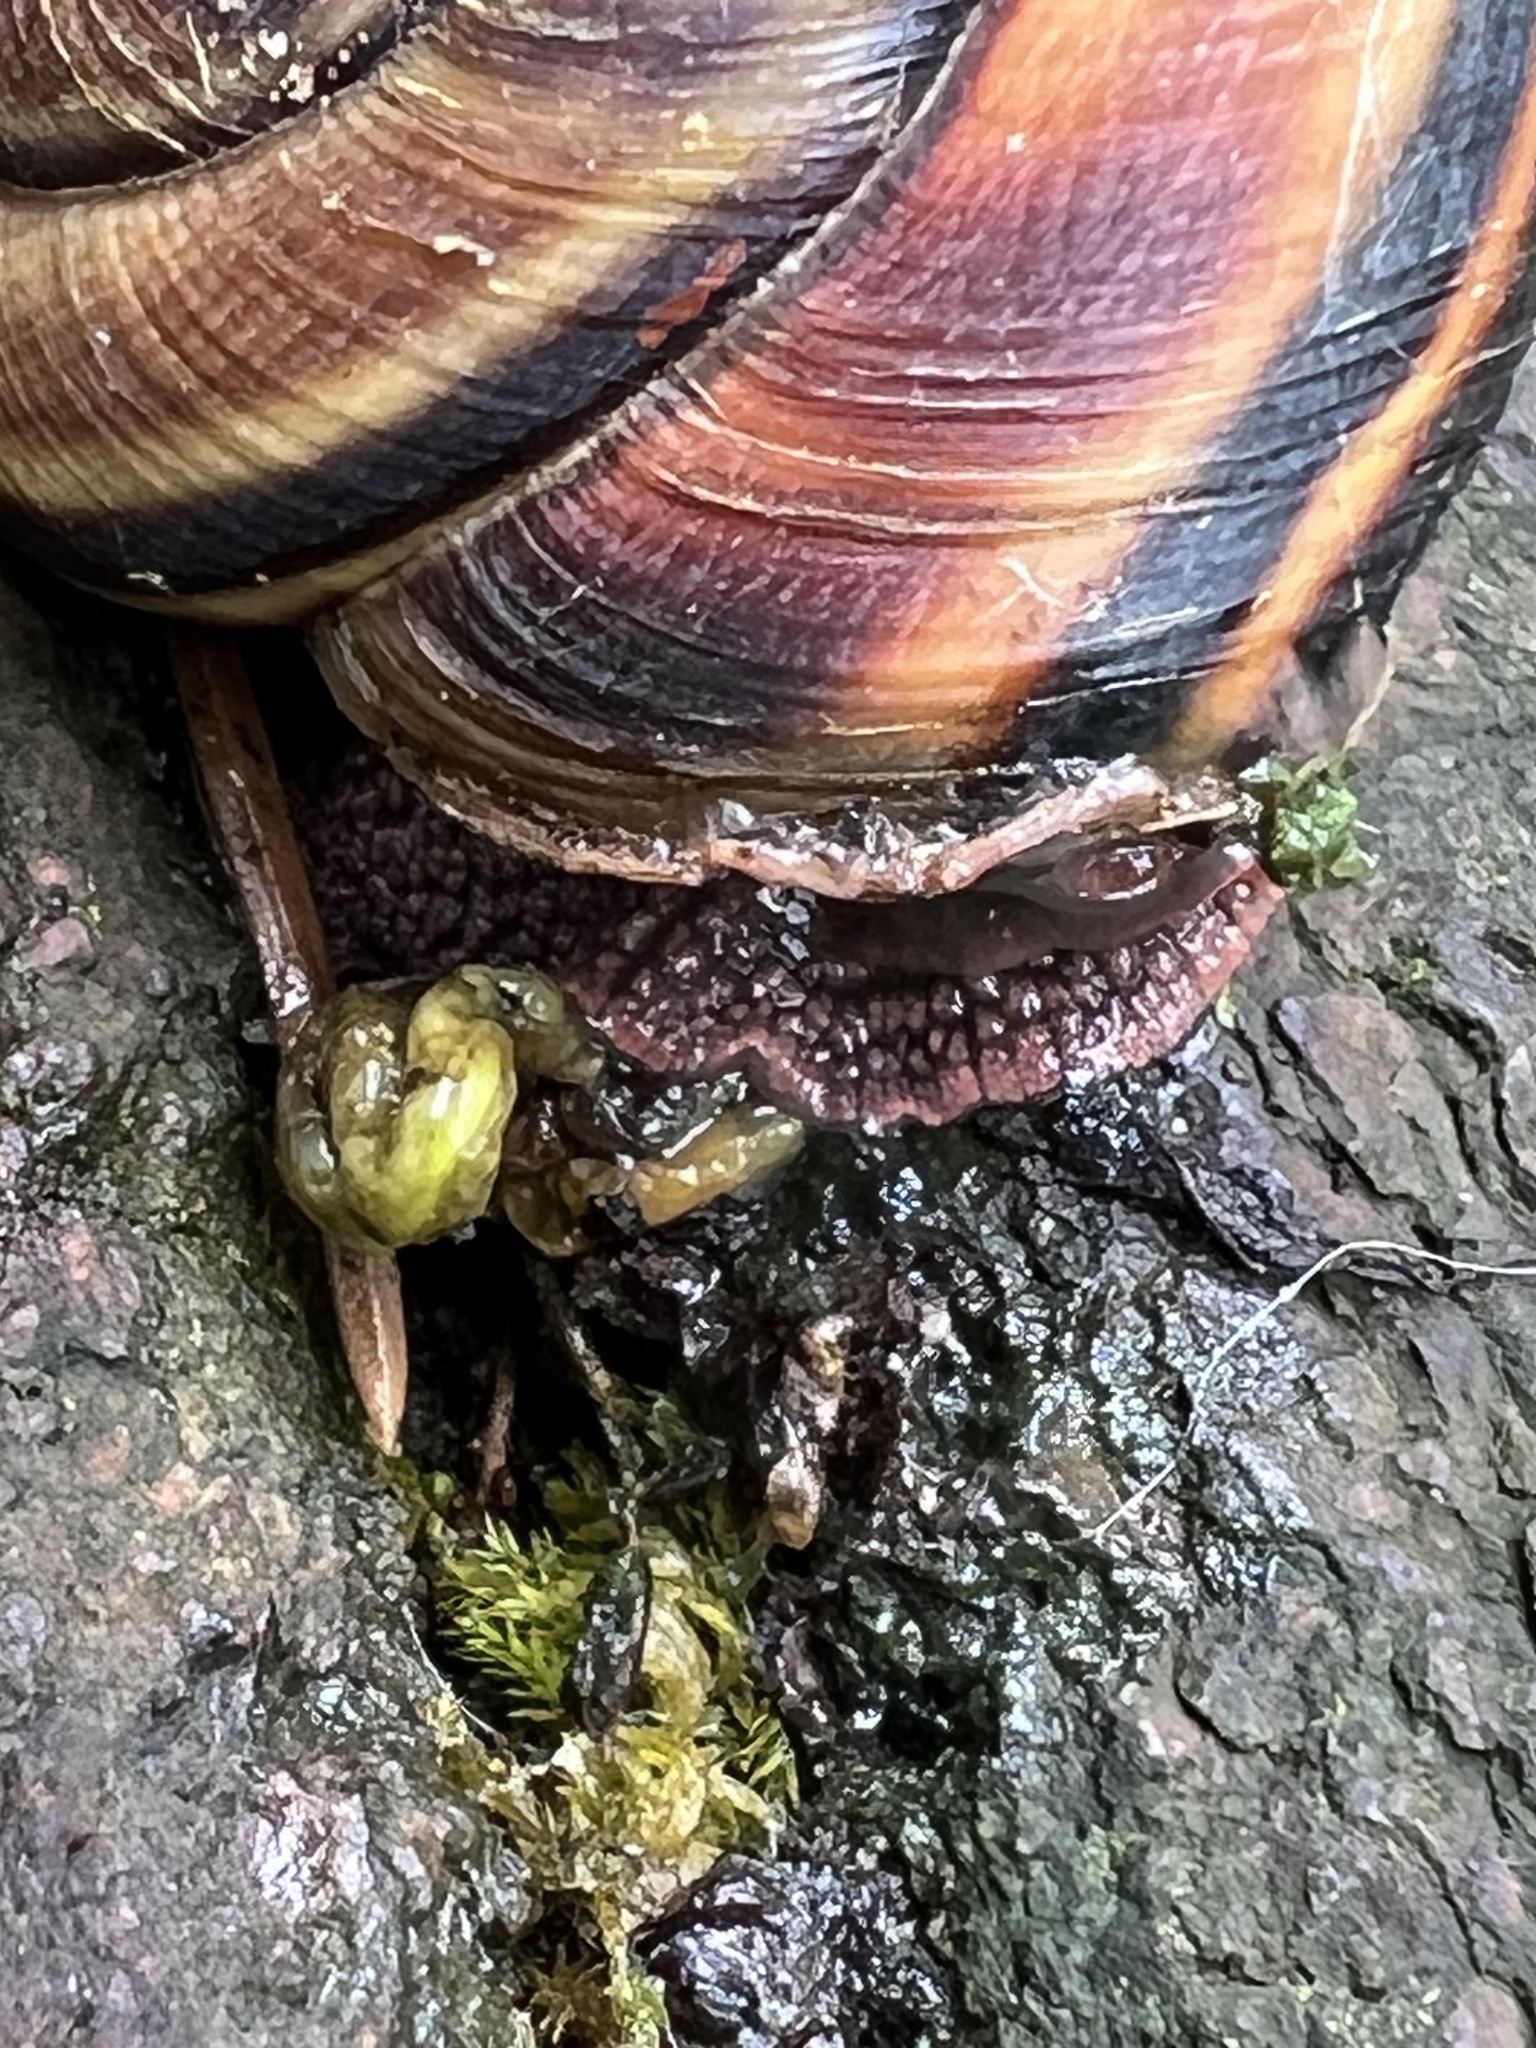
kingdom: Animalia
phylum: Mollusca
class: Gastropoda
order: Stylommatophora
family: Xanthonychidae
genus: Monadenia
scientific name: Monadenia fidelis
